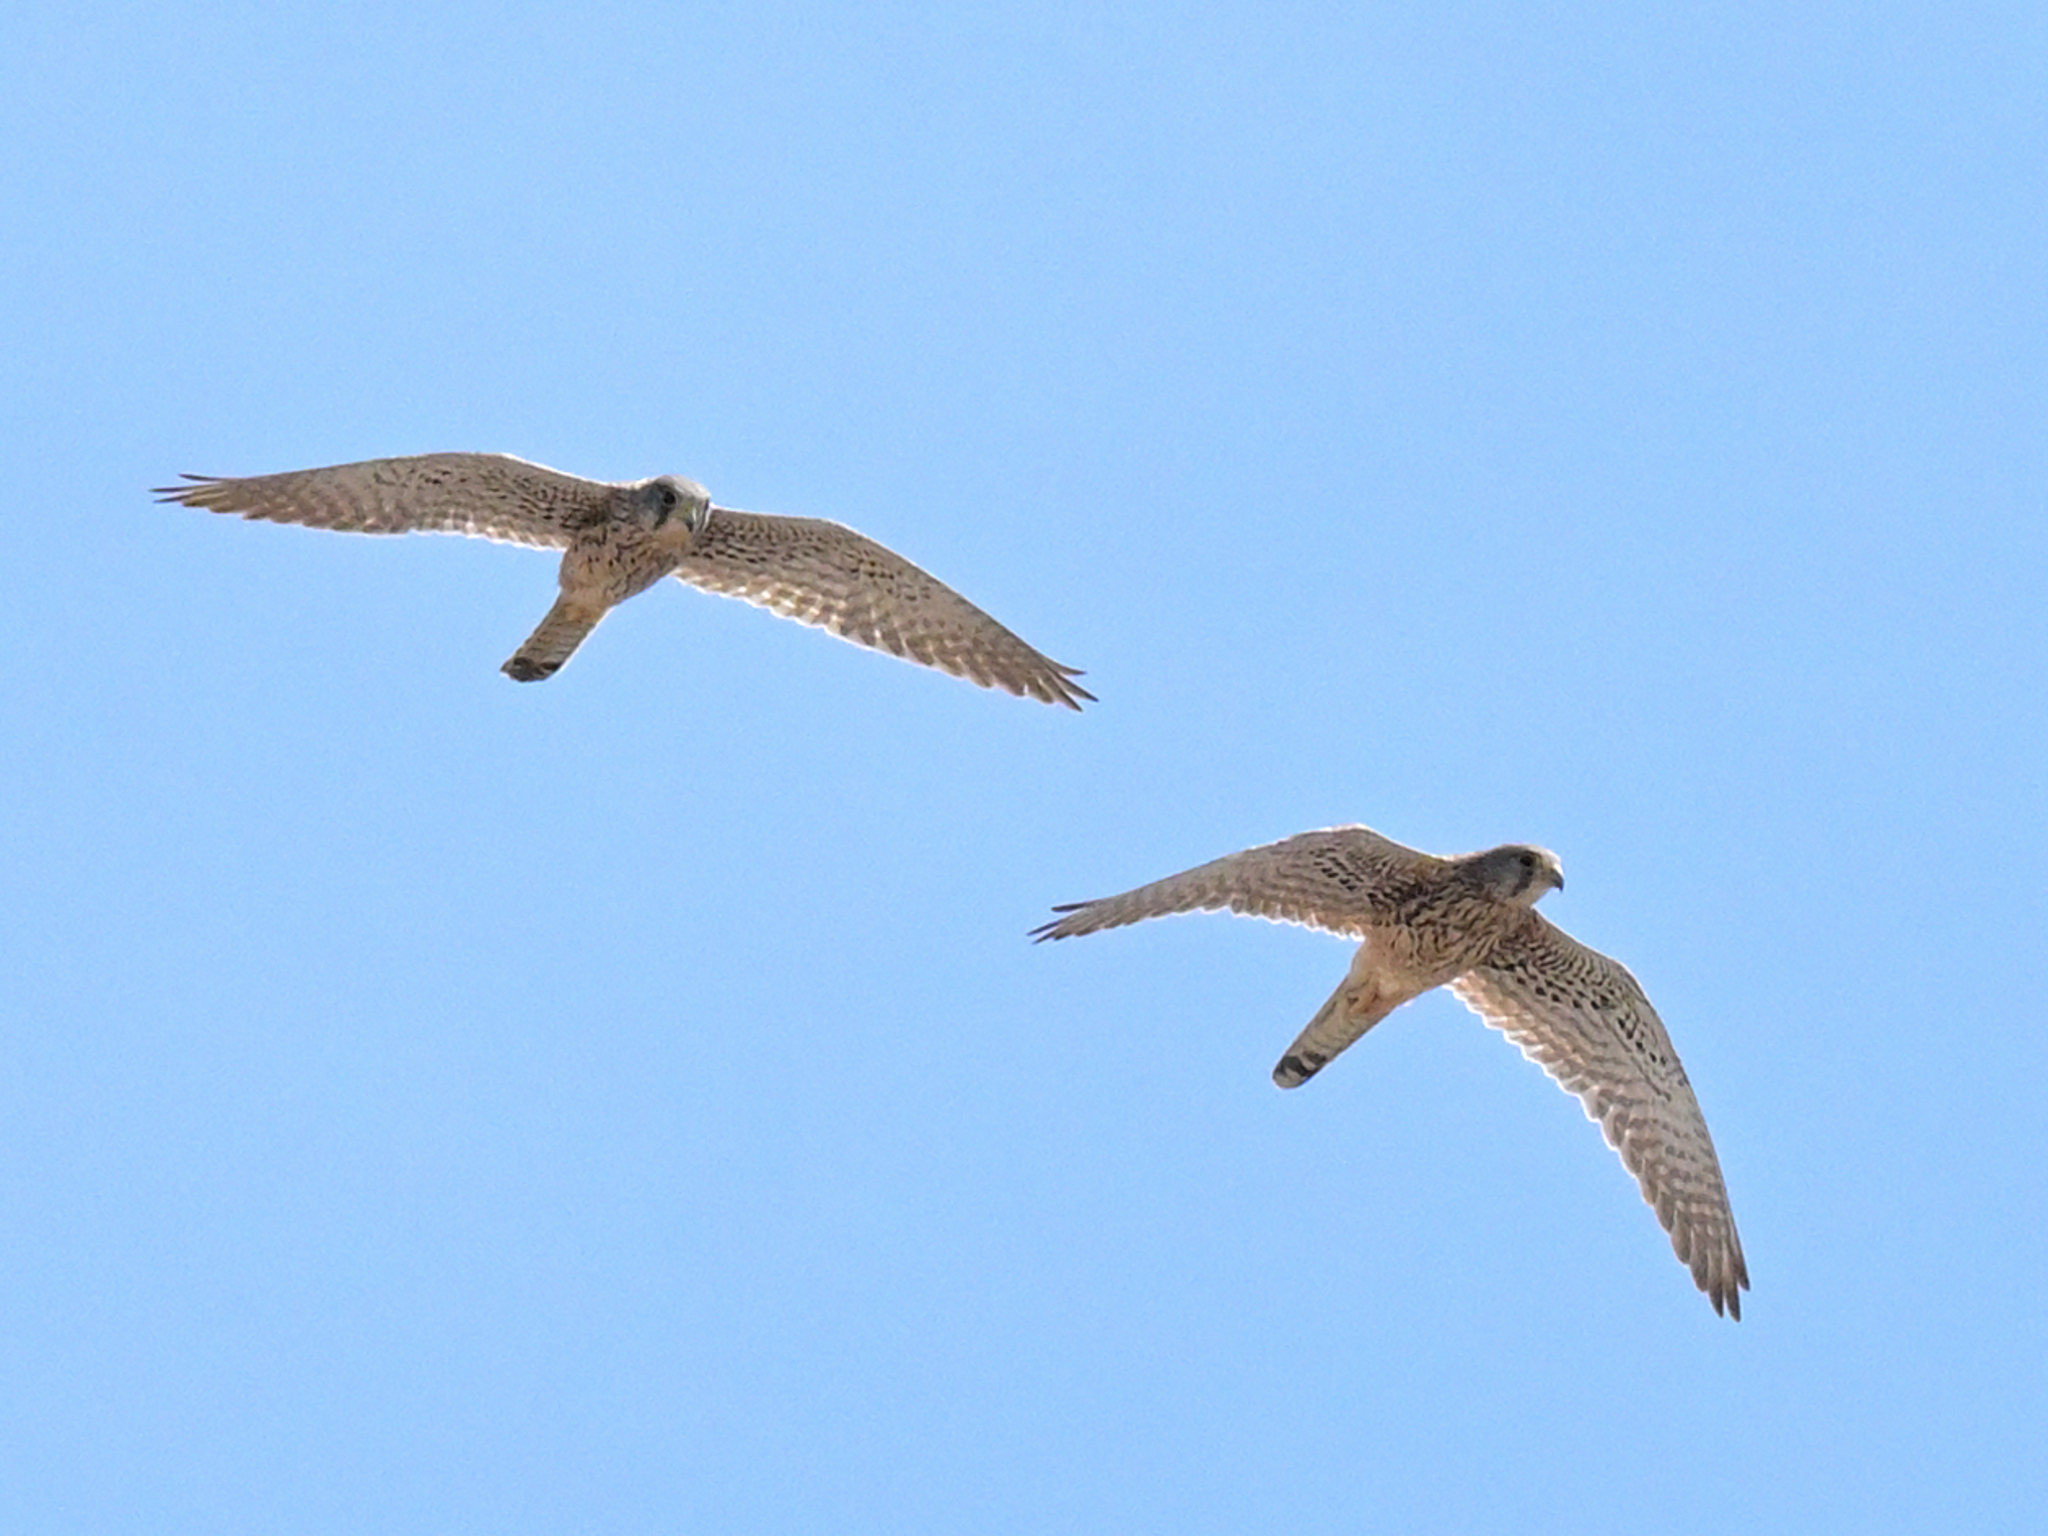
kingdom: Animalia
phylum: Chordata
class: Aves
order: Falconiformes
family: Falconidae
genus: Falco
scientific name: Falco tinnunculus
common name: Common kestrel
